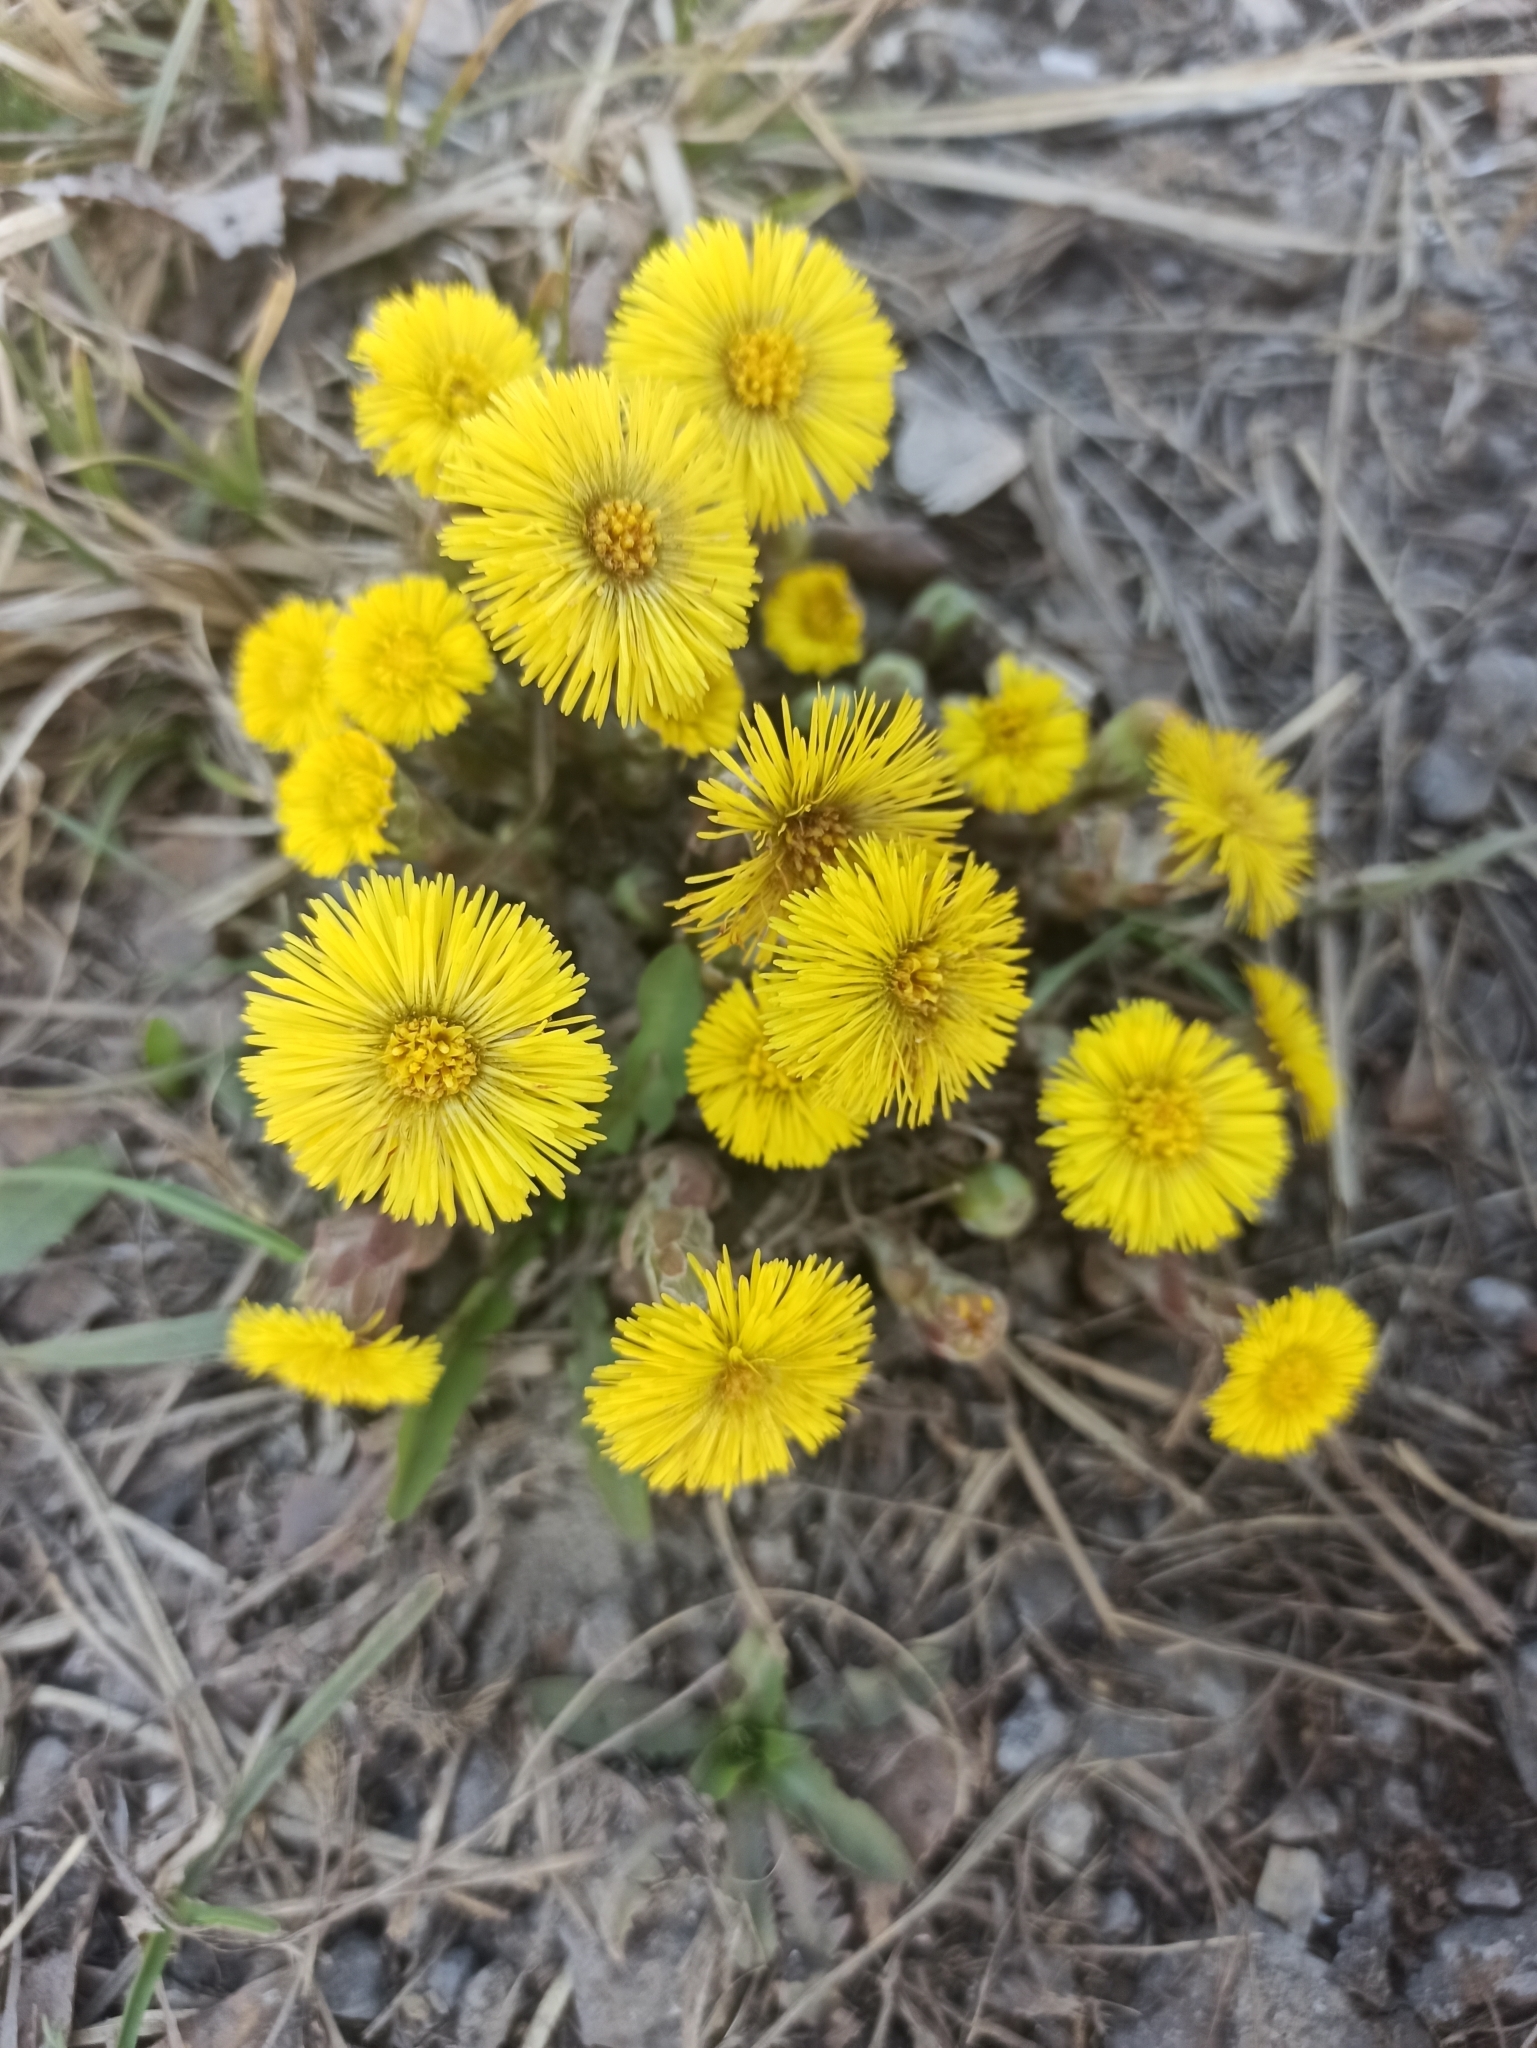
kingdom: Plantae
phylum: Tracheophyta
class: Magnoliopsida
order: Asterales
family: Asteraceae
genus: Tussilago
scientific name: Tussilago farfara
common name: Coltsfoot
